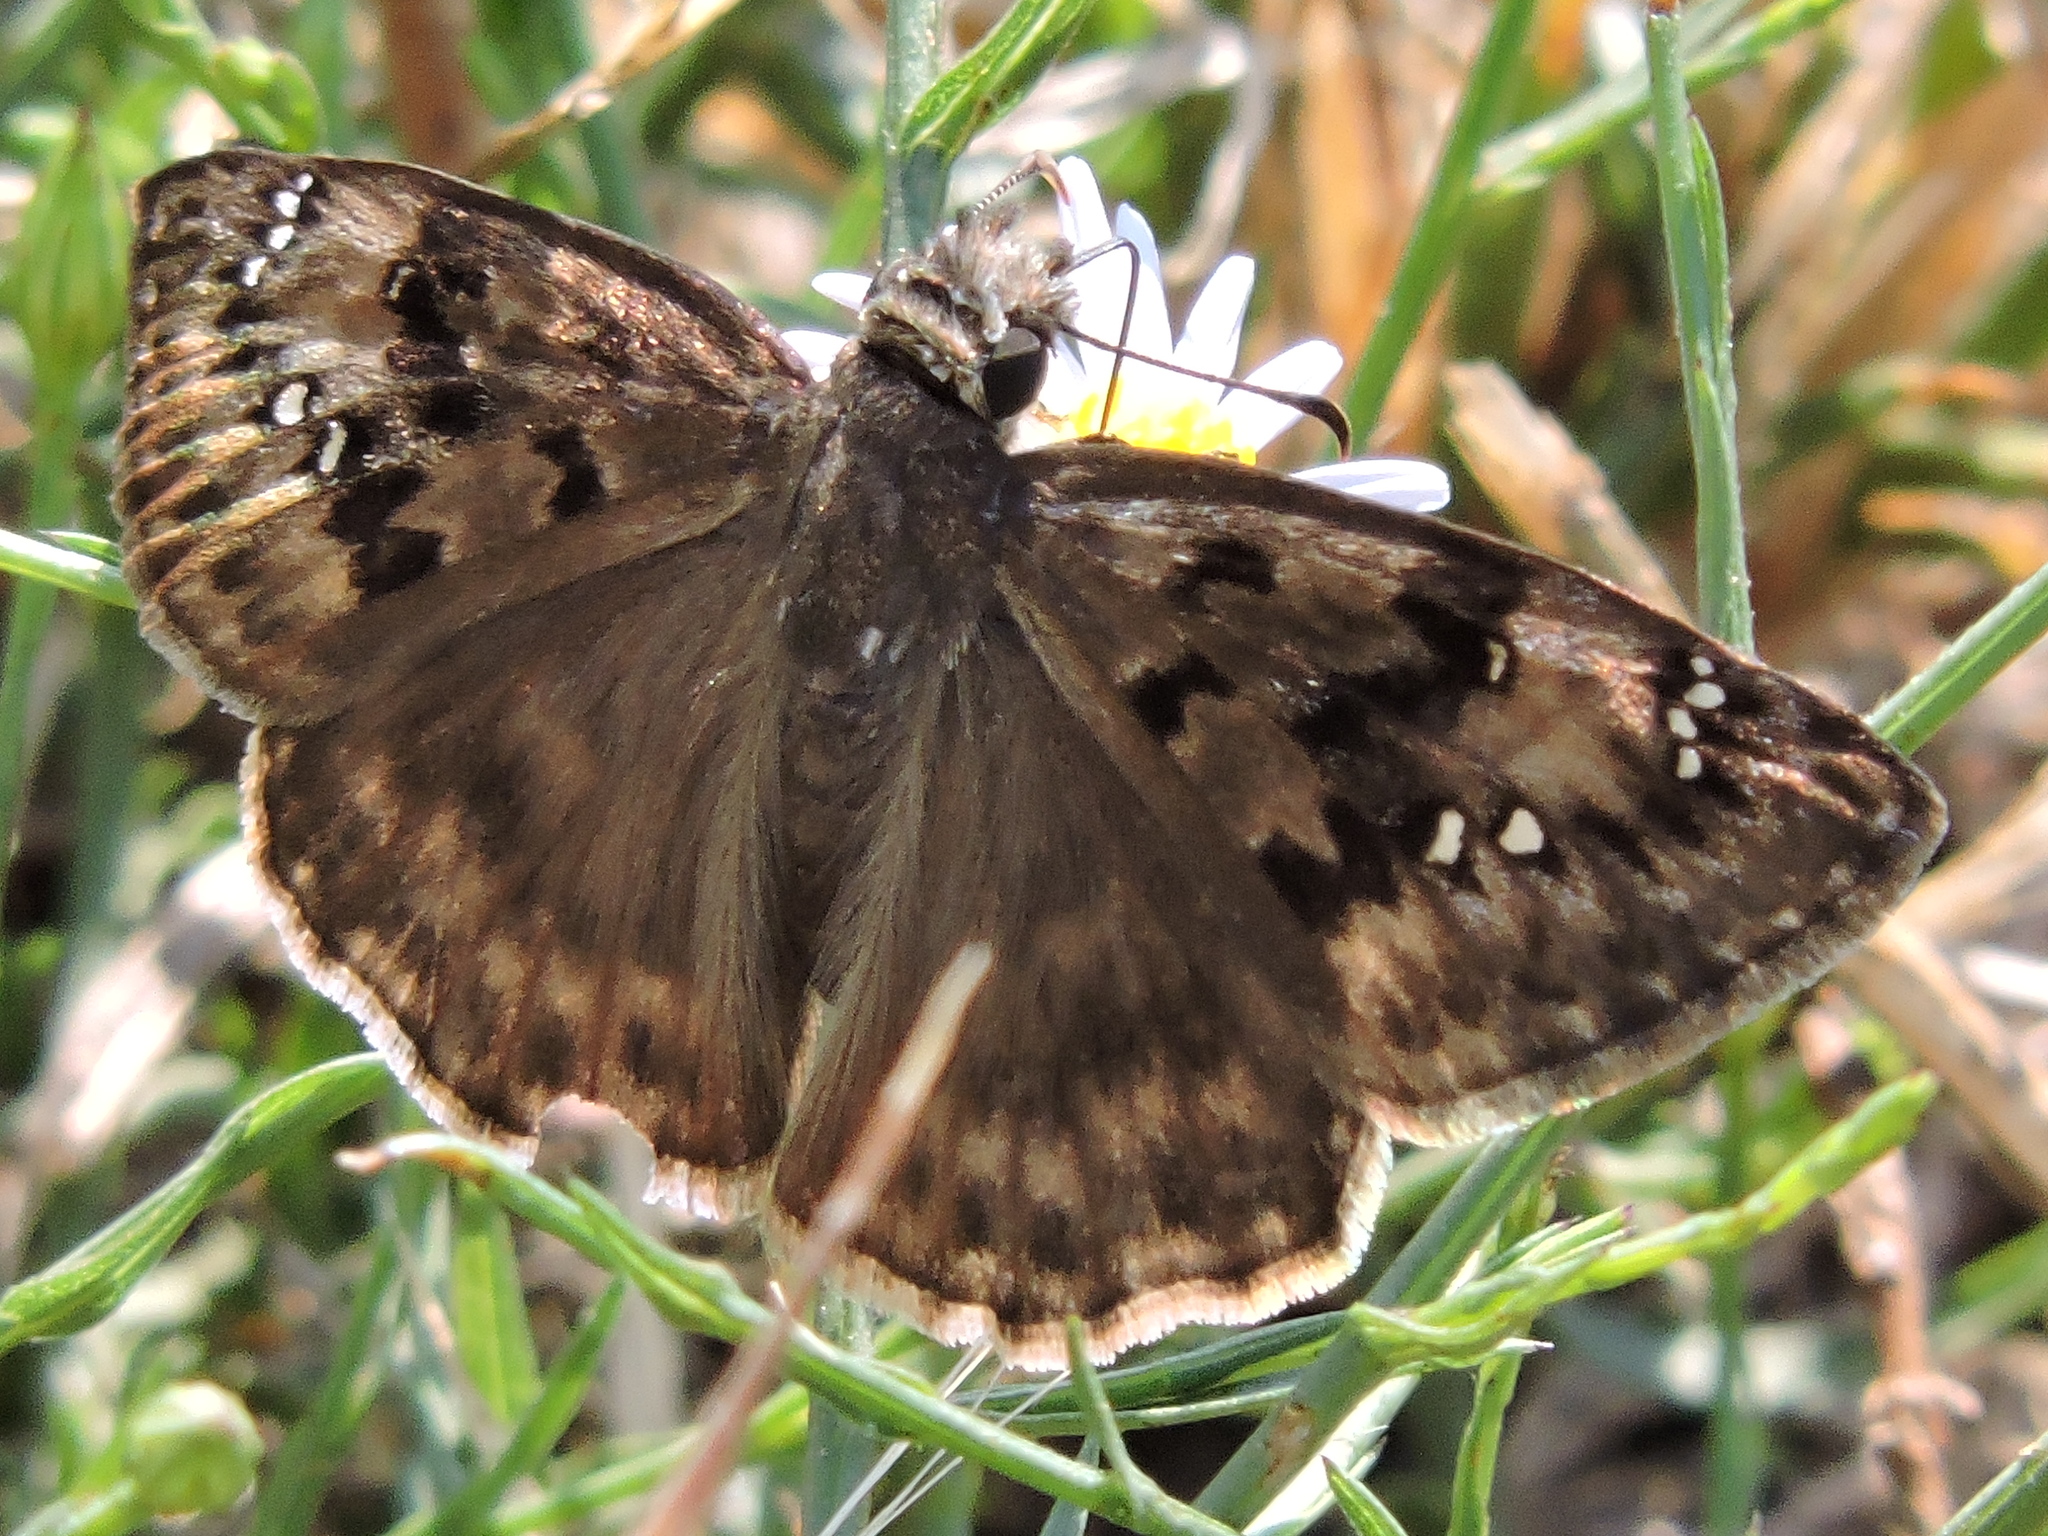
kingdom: Animalia
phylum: Arthropoda
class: Insecta
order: Lepidoptera
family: Hesperiidae
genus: Erynnis
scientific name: Erynnis horatius
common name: Horace's duskywing
